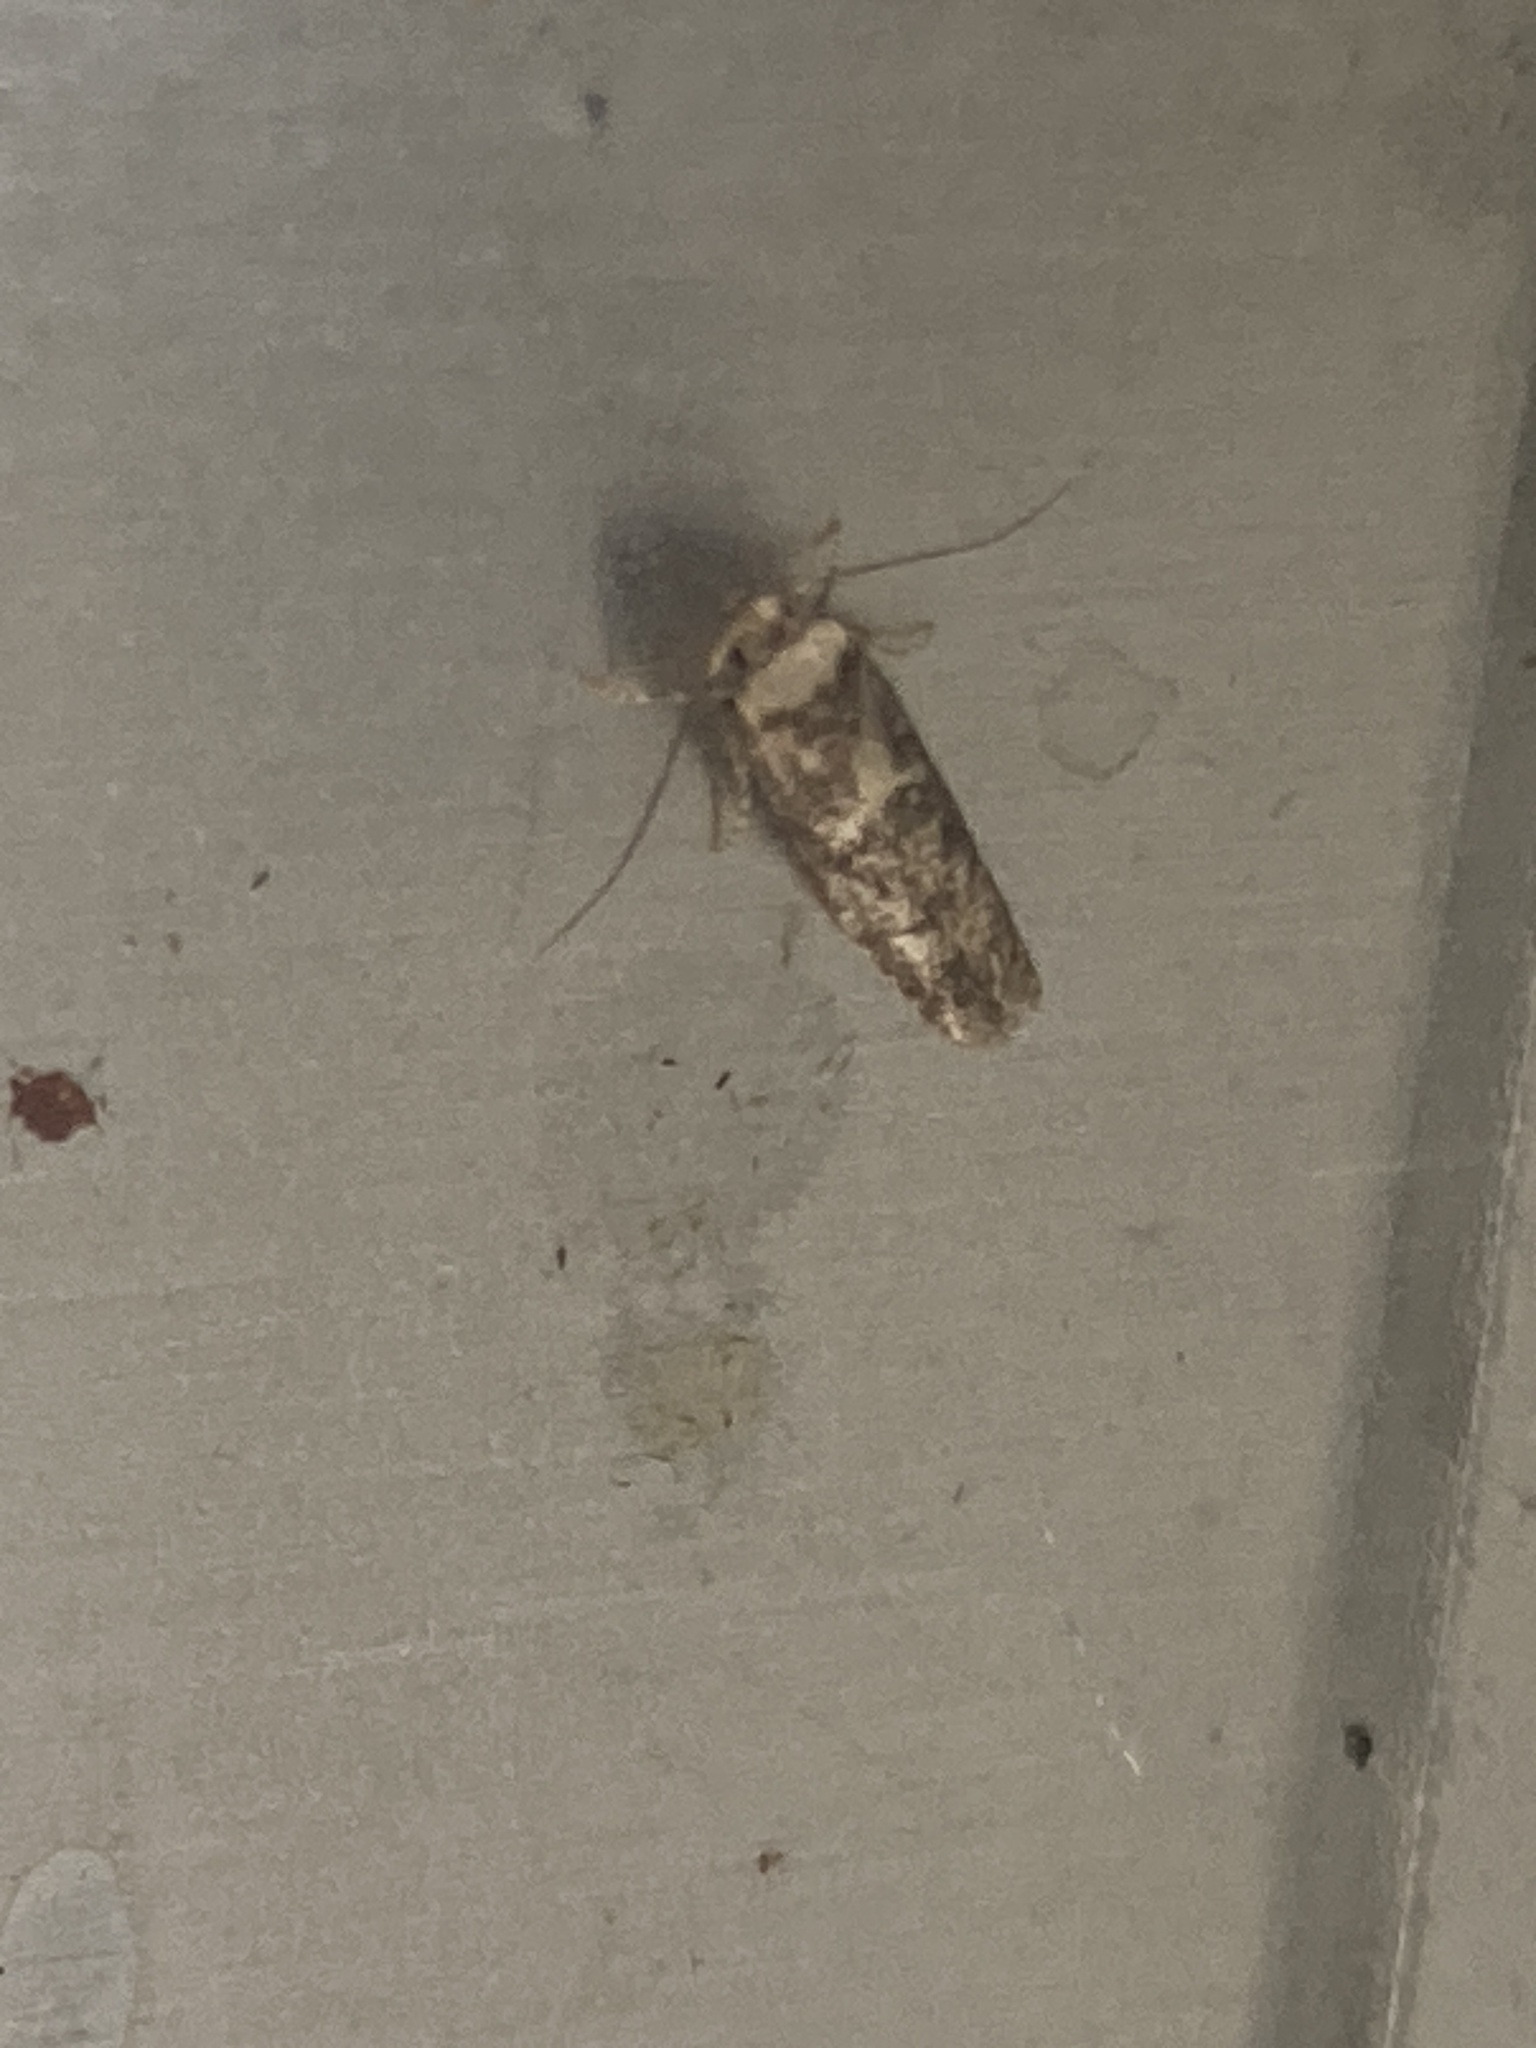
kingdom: Animalia
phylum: Arthropoda
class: Insecta
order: Lepidoptera
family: Blastobasidae
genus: Blastobasis
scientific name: Blastobasis adustella
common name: Dingy dowd
